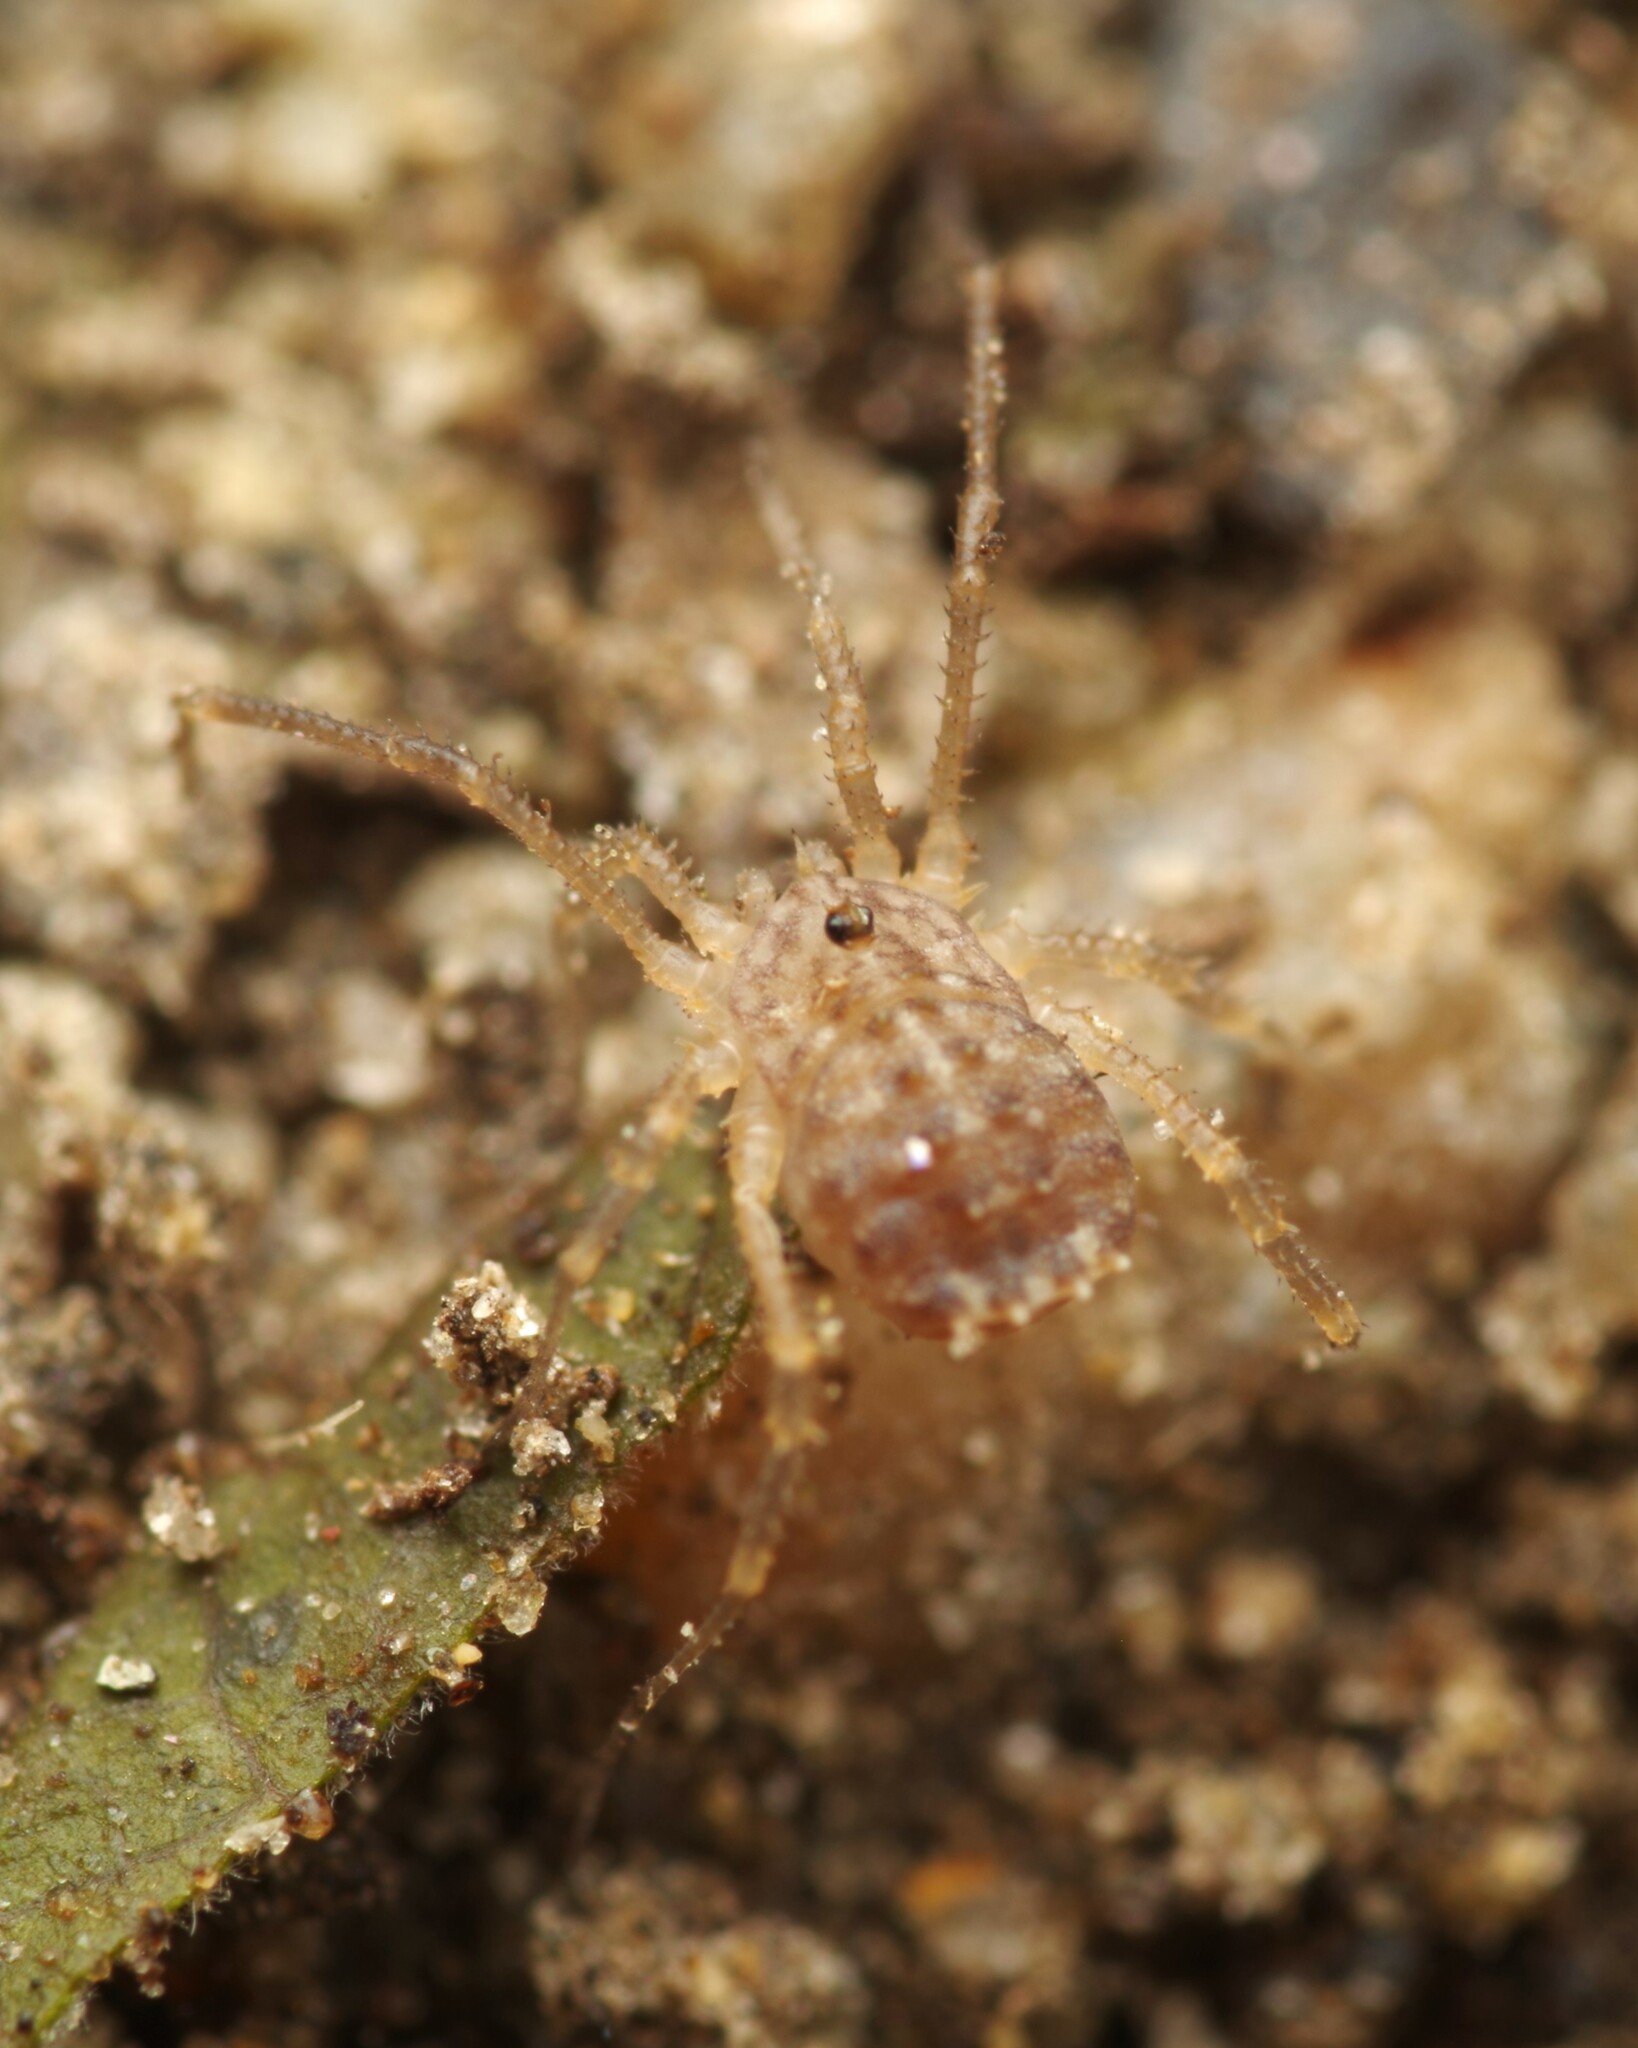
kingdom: Animalia
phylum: Arthropoda
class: Arachnida
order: Opiliones
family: Sclerosomatidae
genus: Homalenotus
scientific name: Homalenotus quadridentatus
